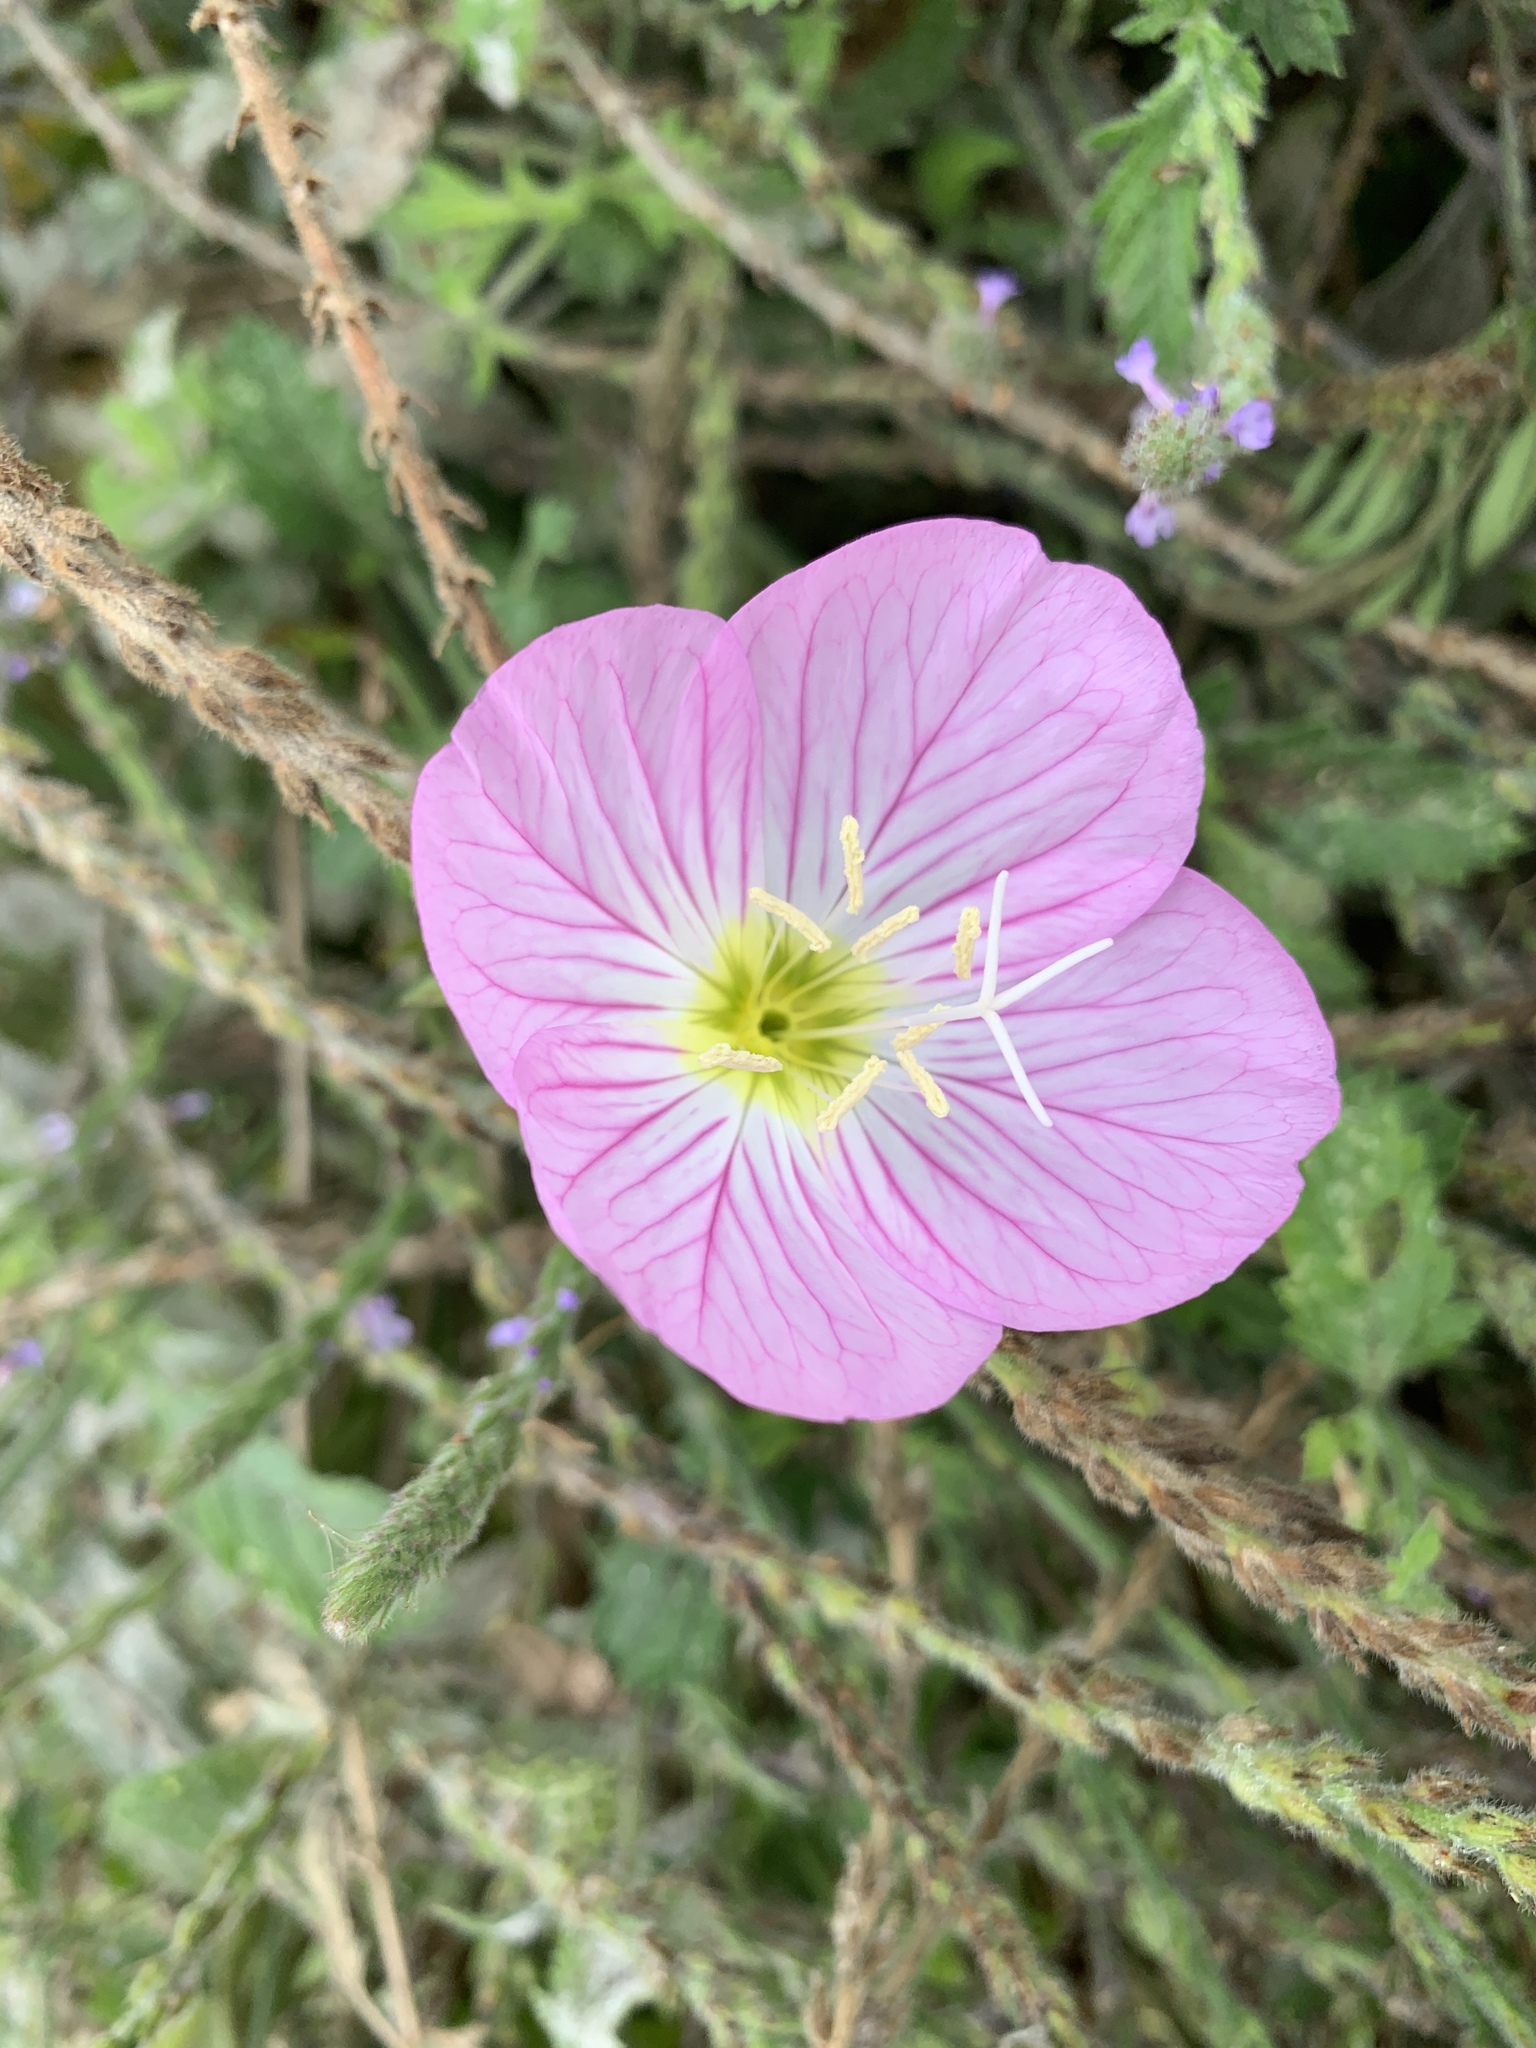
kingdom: Plantae
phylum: Tracheophyta
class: Magnoliopsida
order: Myrtales
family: Onagraceae
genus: Oenothera
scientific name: Oenothera speciosa
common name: White evening-primrose
